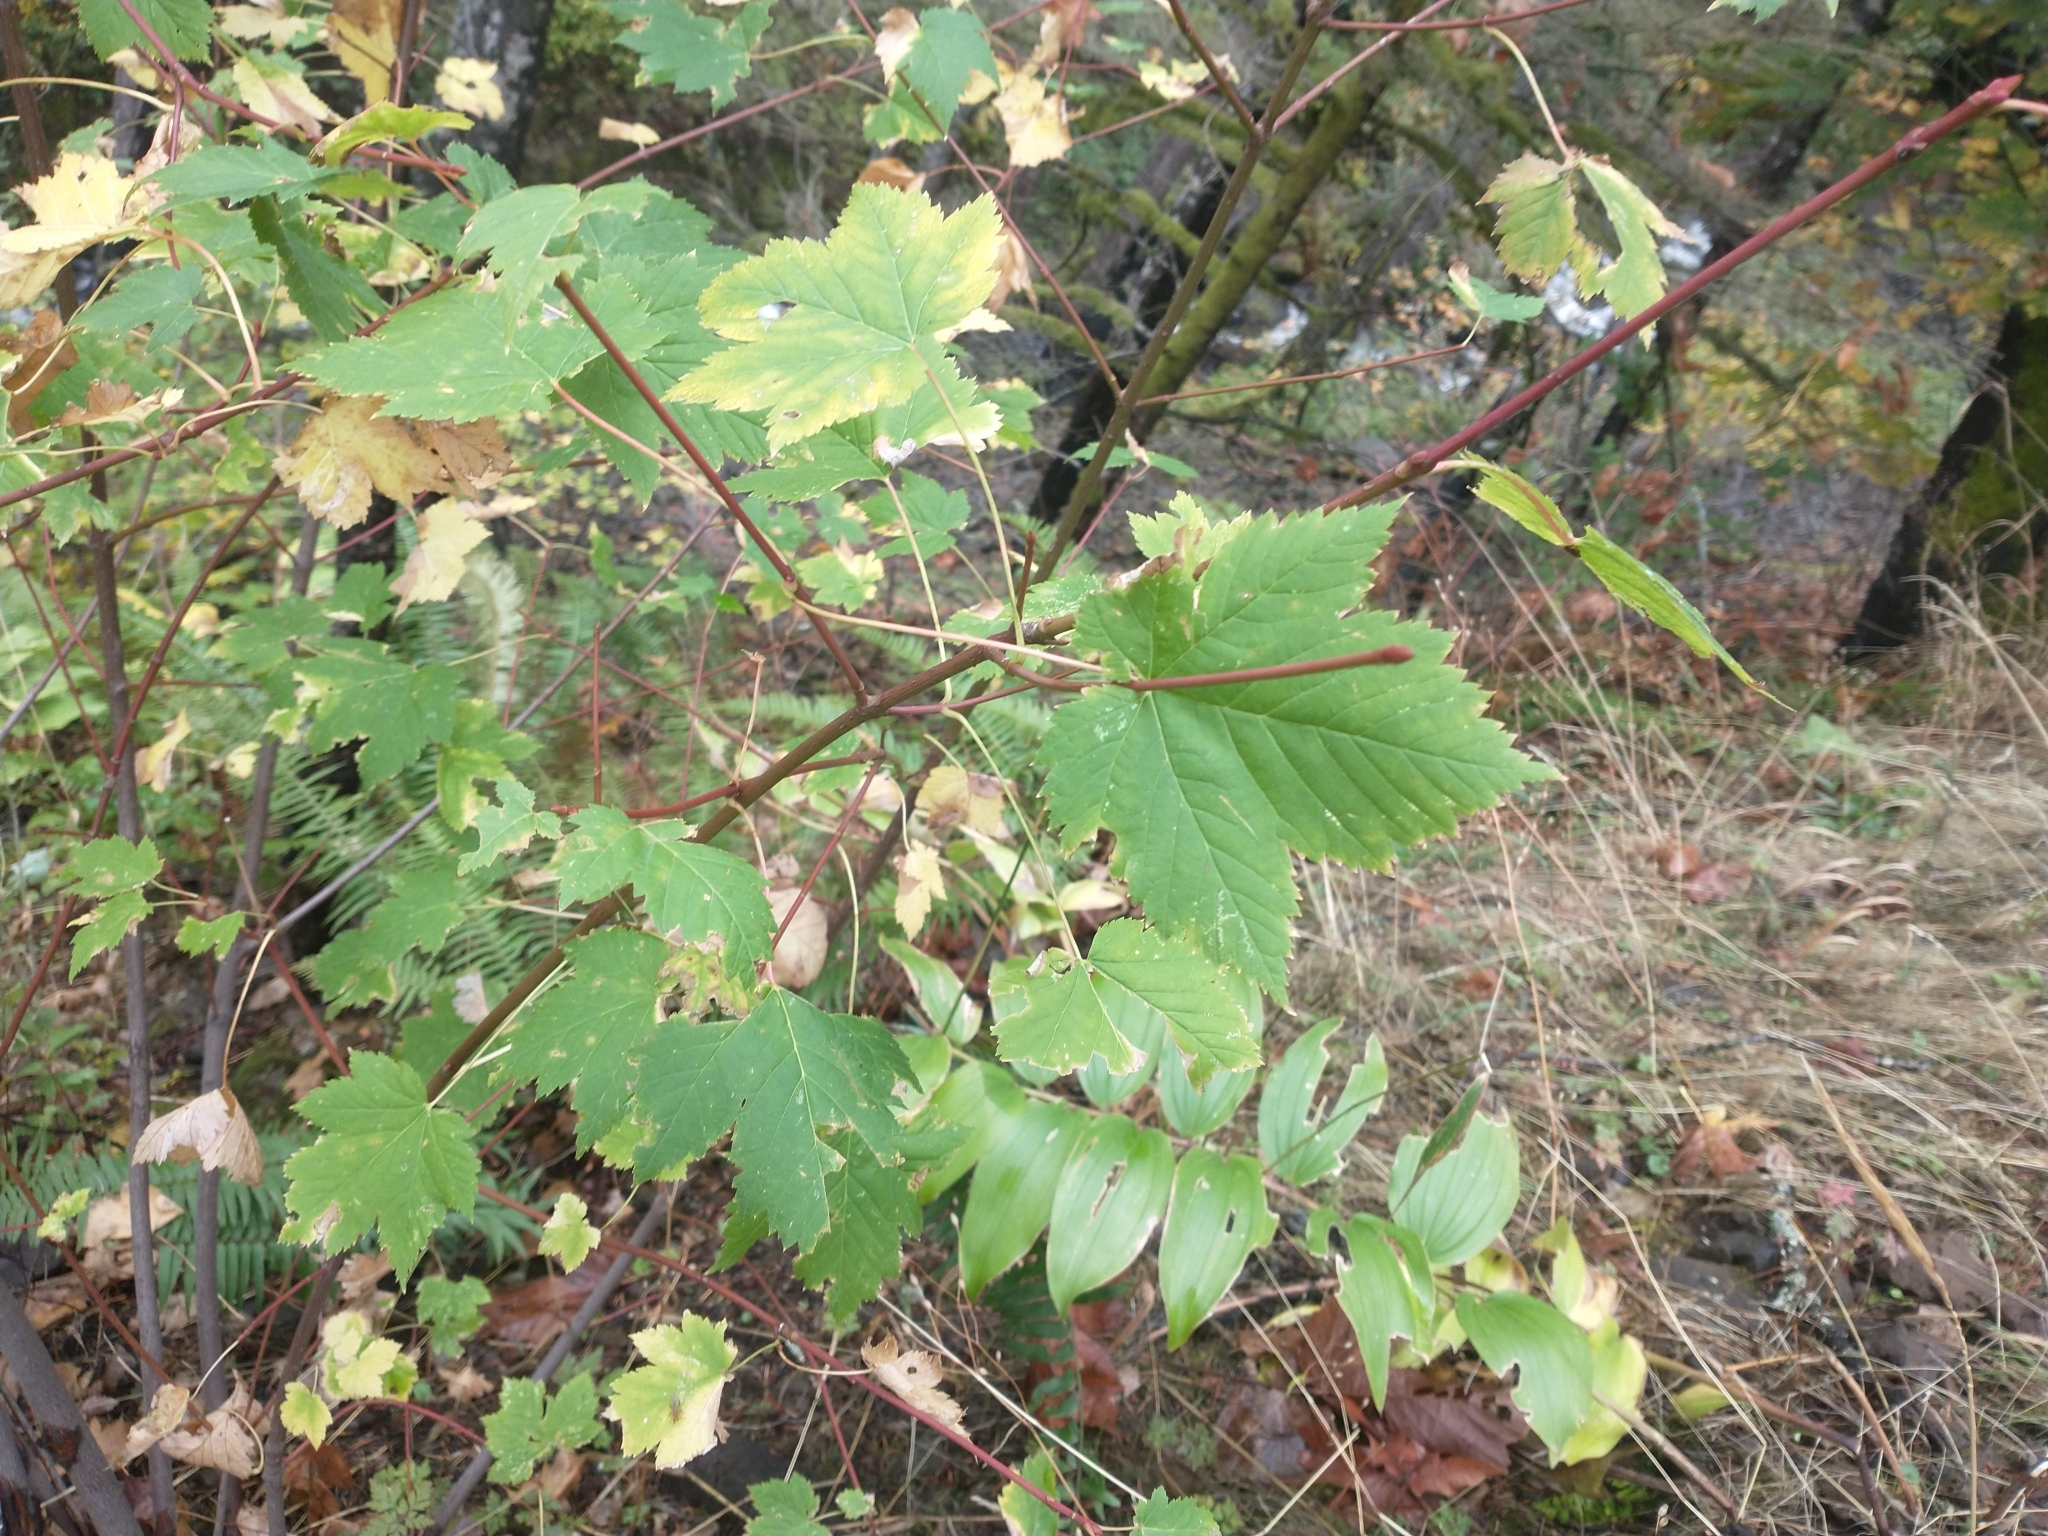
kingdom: Plantae
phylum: Tracheophyta
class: Magnoliopsida
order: Sapindales
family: Sapindaceae
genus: Acer
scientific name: Acer glabrum
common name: Rocky mountain maple
